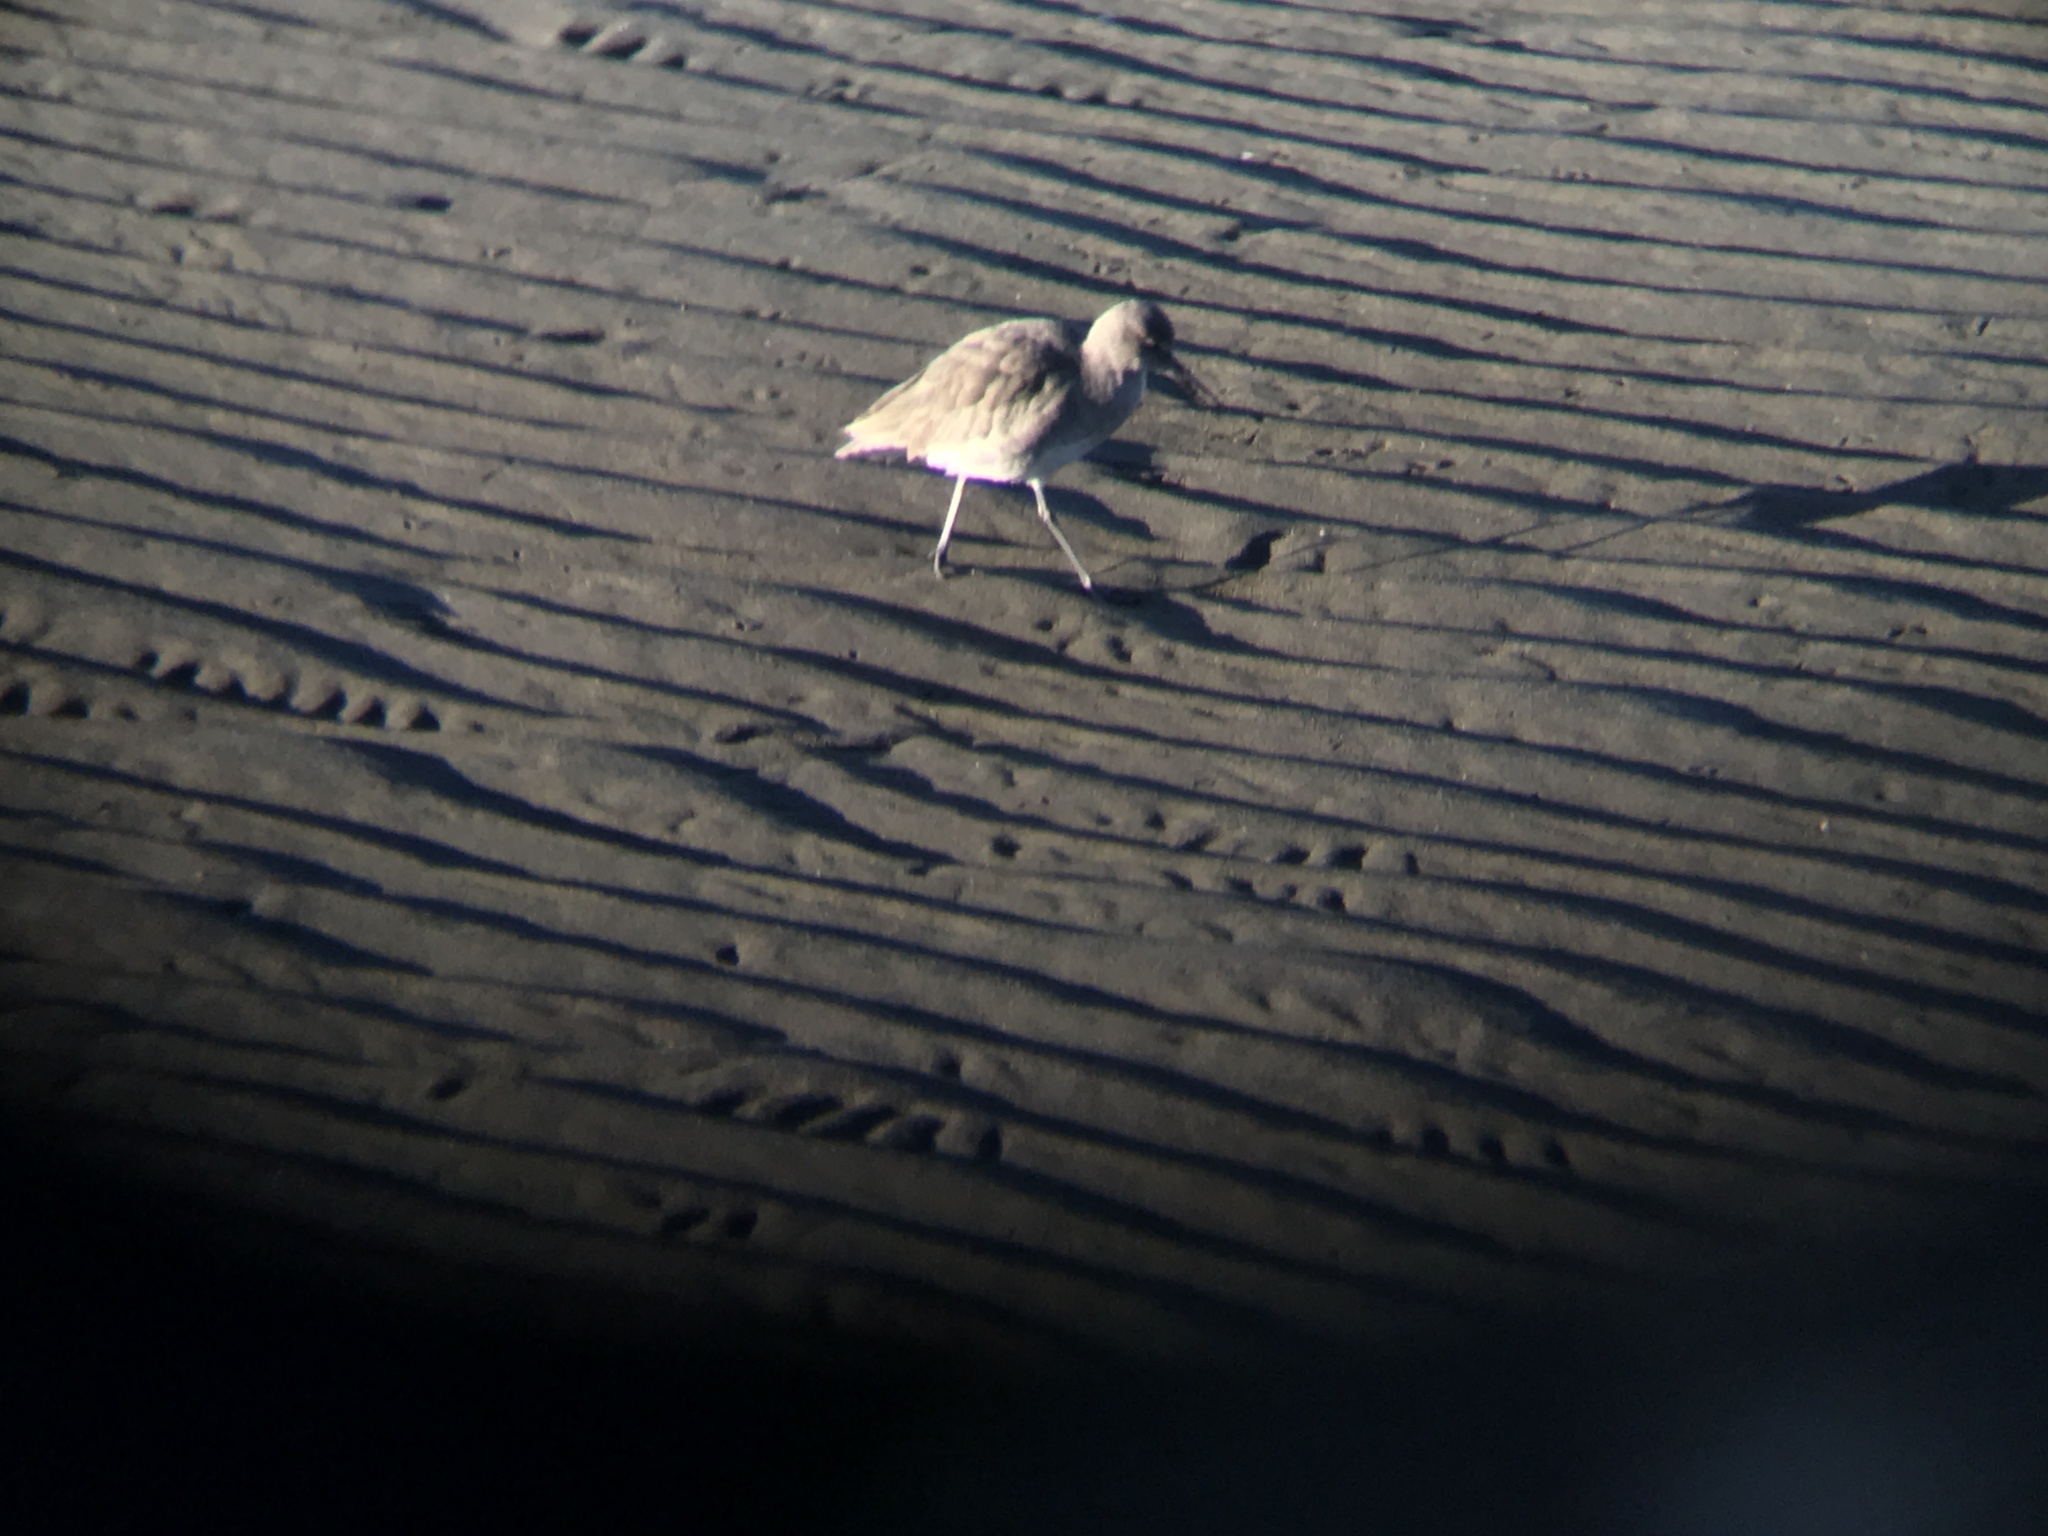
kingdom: Animalia
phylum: Chordata
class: Aves
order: Charadriiformes
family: Scolopacidae
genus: Tringa
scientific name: Tringa semipalmata
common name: Willet
